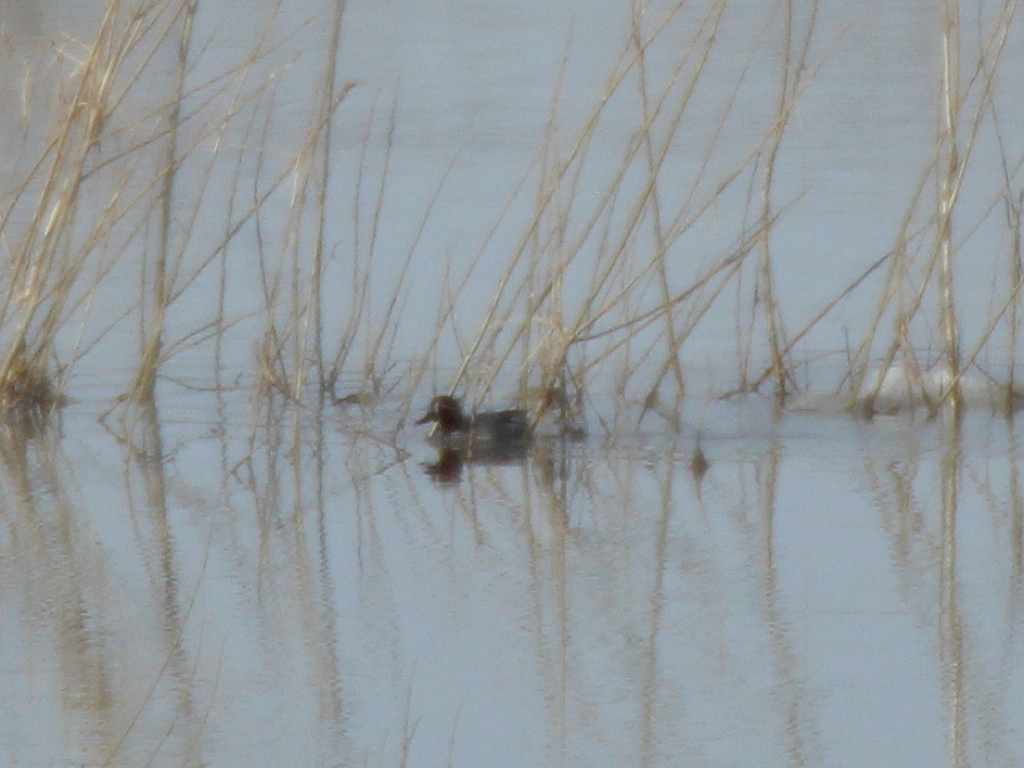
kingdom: Animalia
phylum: Chordata
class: Aves
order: Anseriformes
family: Anatidae
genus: Anas
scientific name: Anas crecca
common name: Eurasian teal
